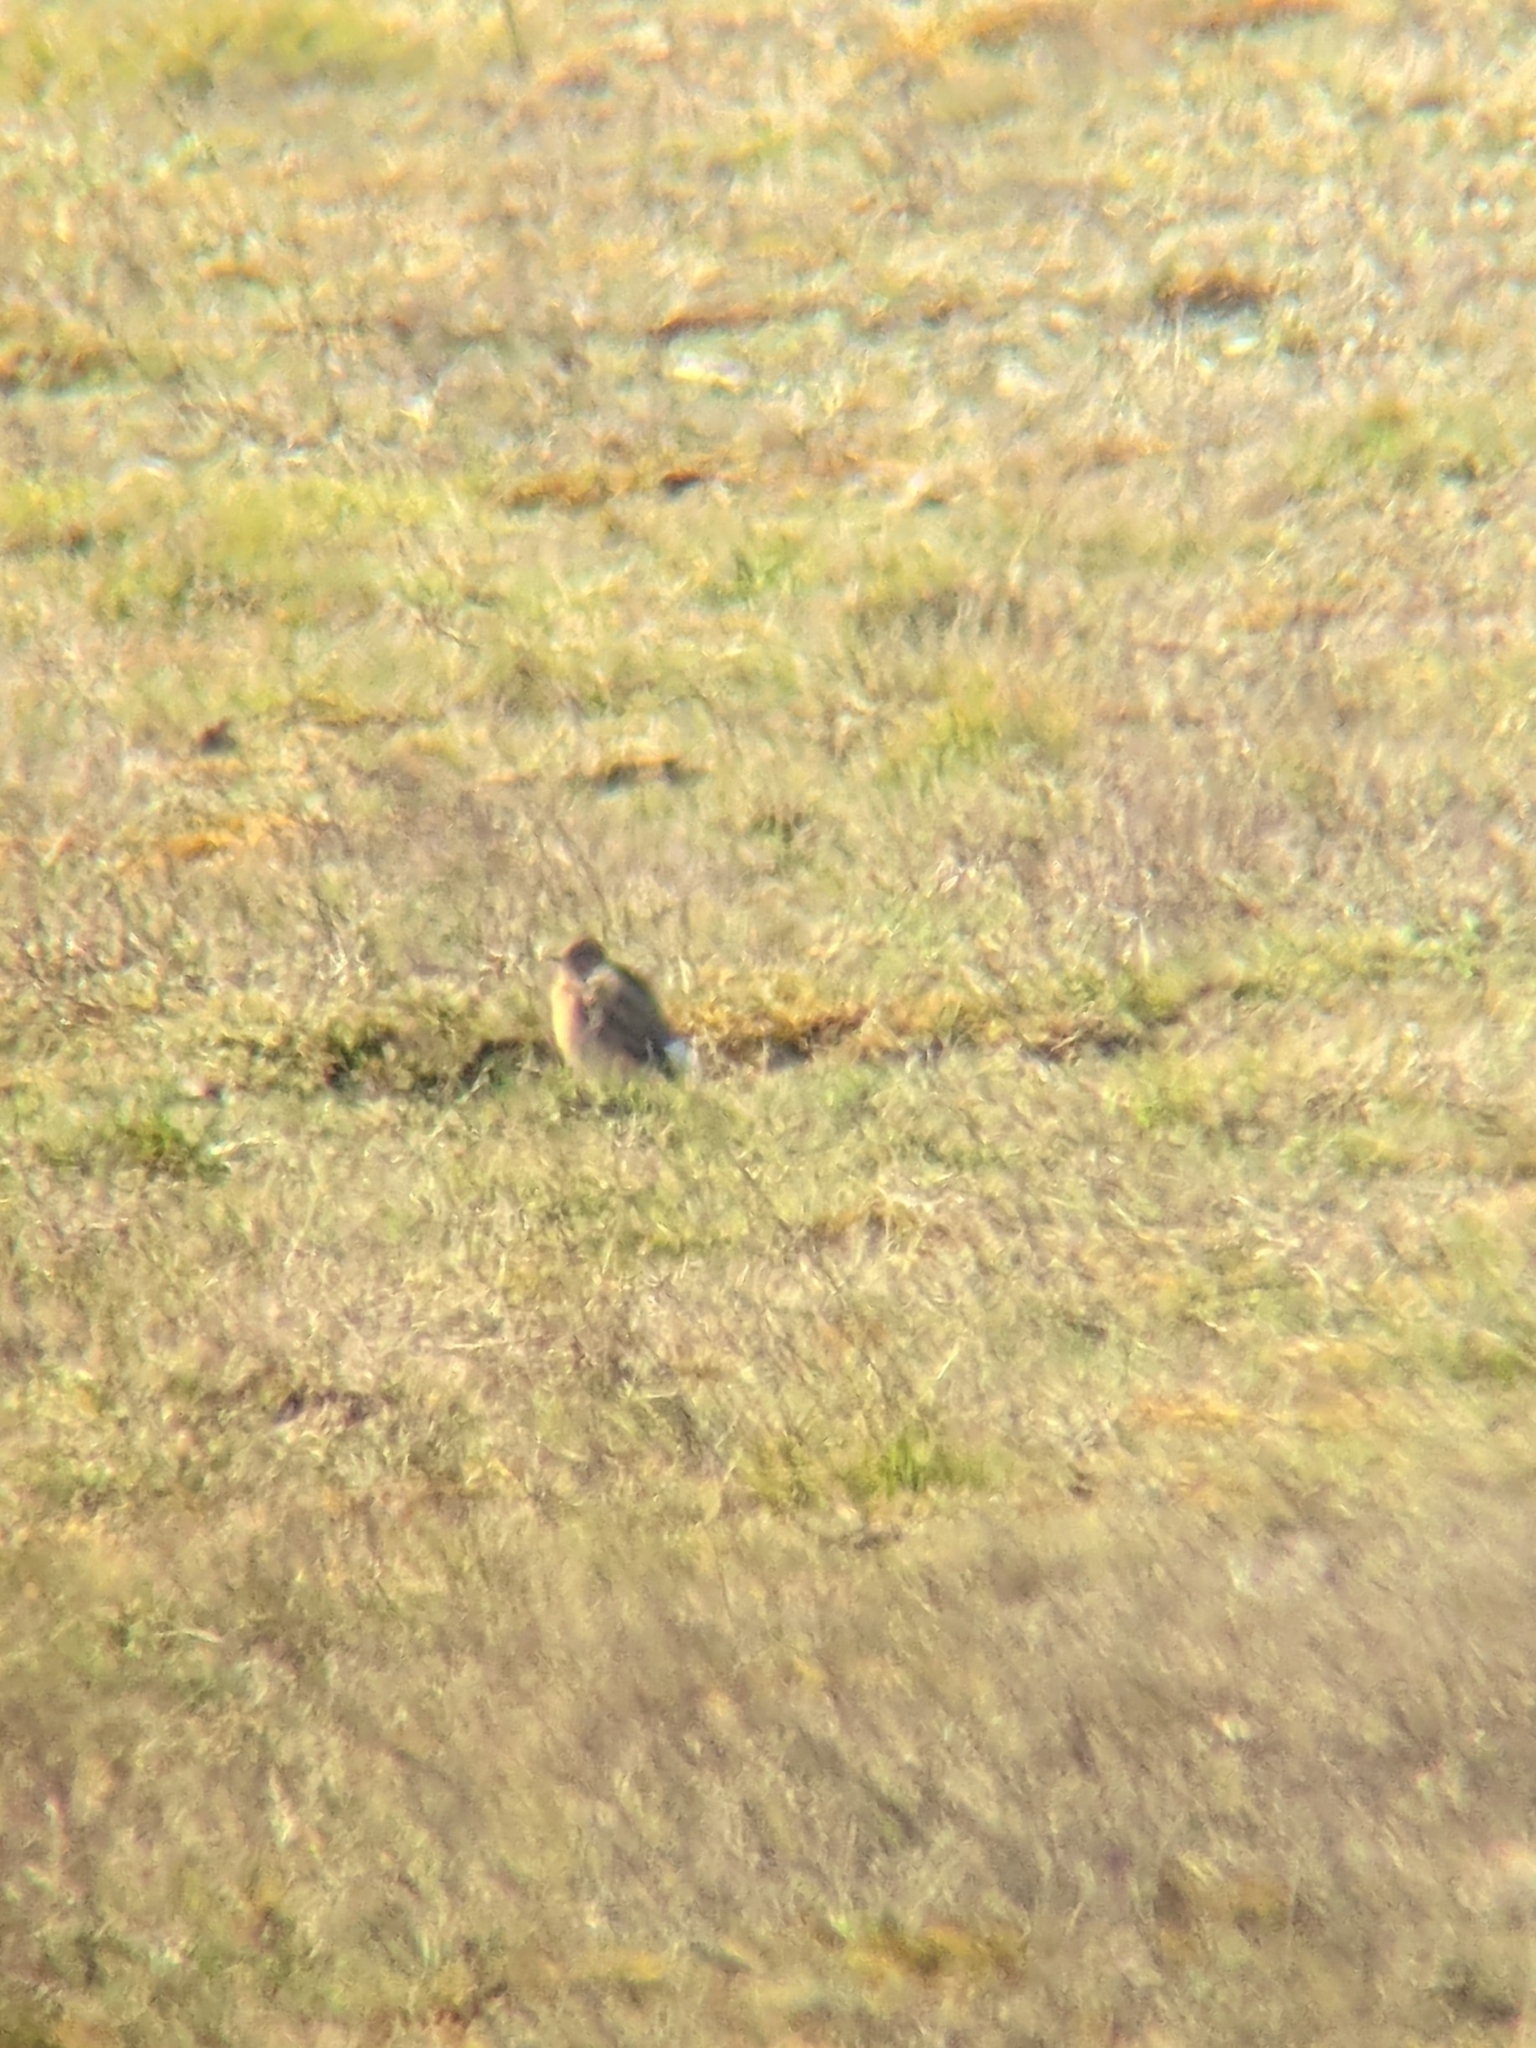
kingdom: Animalia
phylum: Chordata
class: Aves
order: Passeriformes
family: Muscicapidae
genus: Oenanthe
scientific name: Oenanthe oenanthe
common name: Northern wheatear
